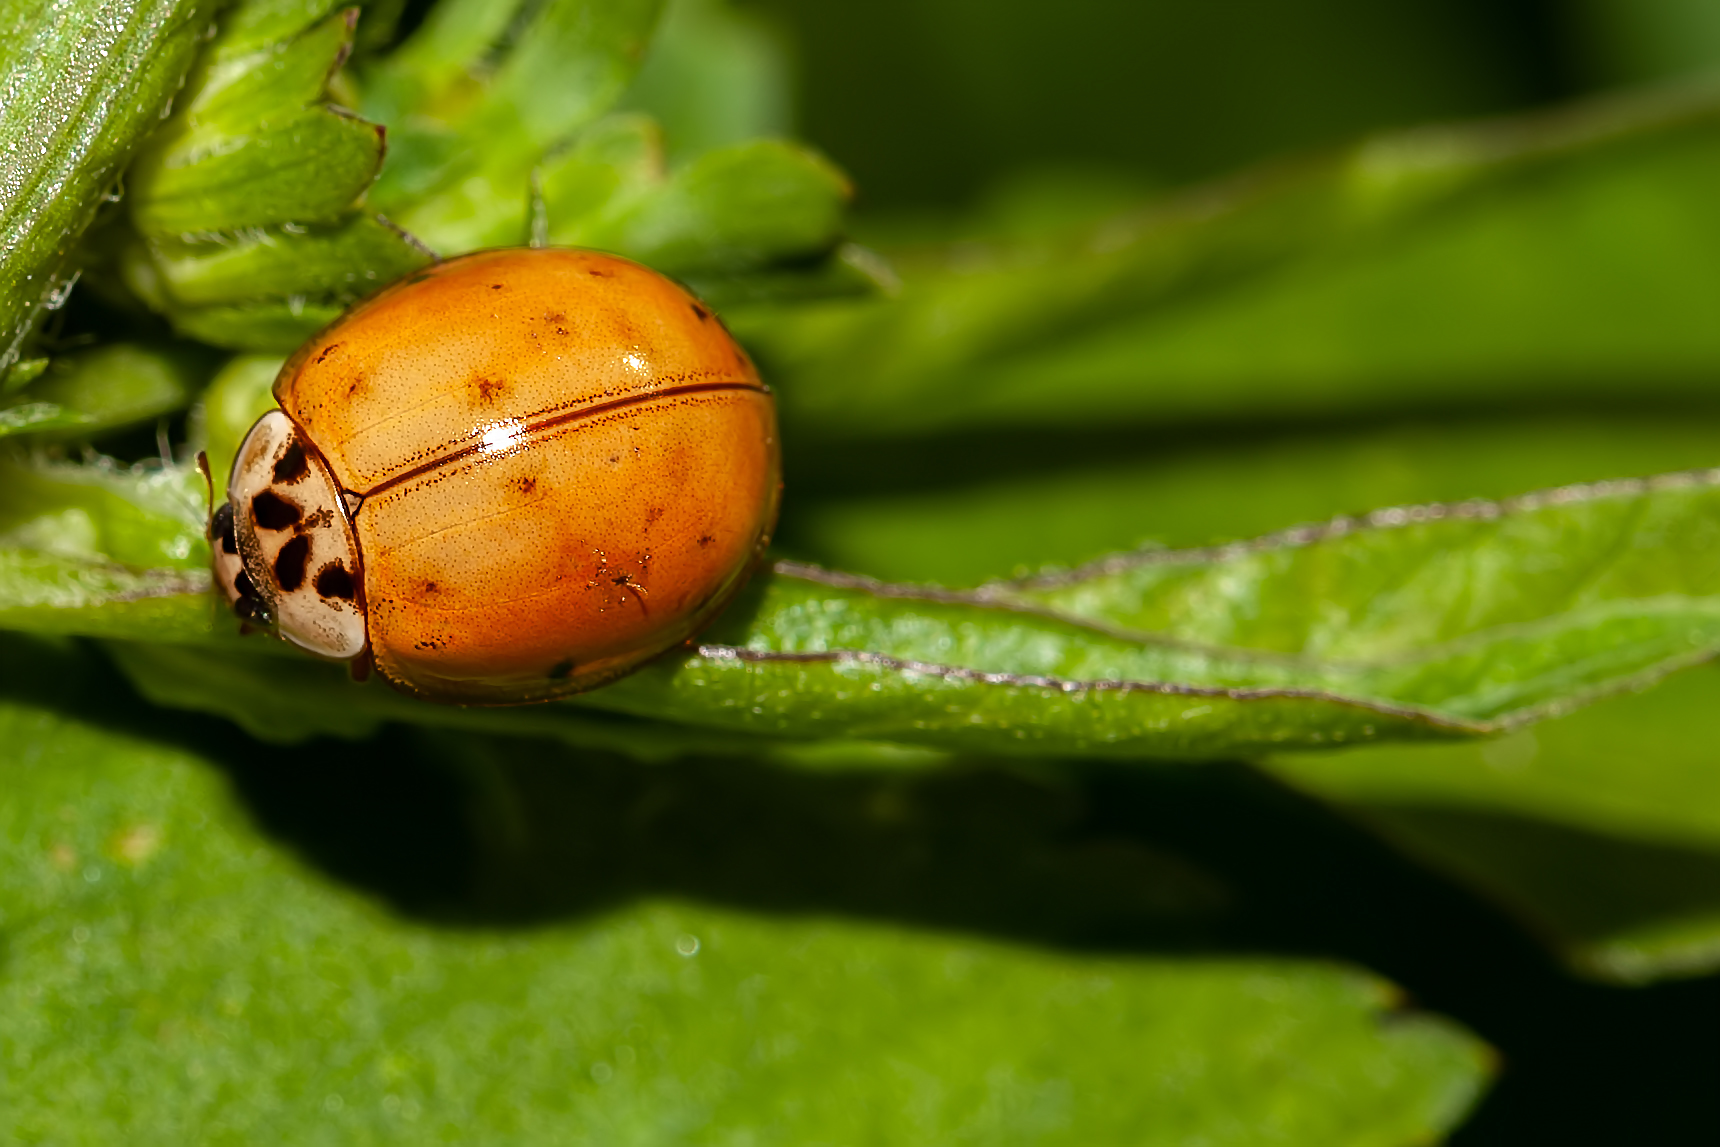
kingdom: Animalia
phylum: Arthropoda
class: Insecta
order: Coleoptera
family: Coccinellidae
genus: Harmonia
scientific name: Harmonia axyridis
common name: Harlequin ladybird
